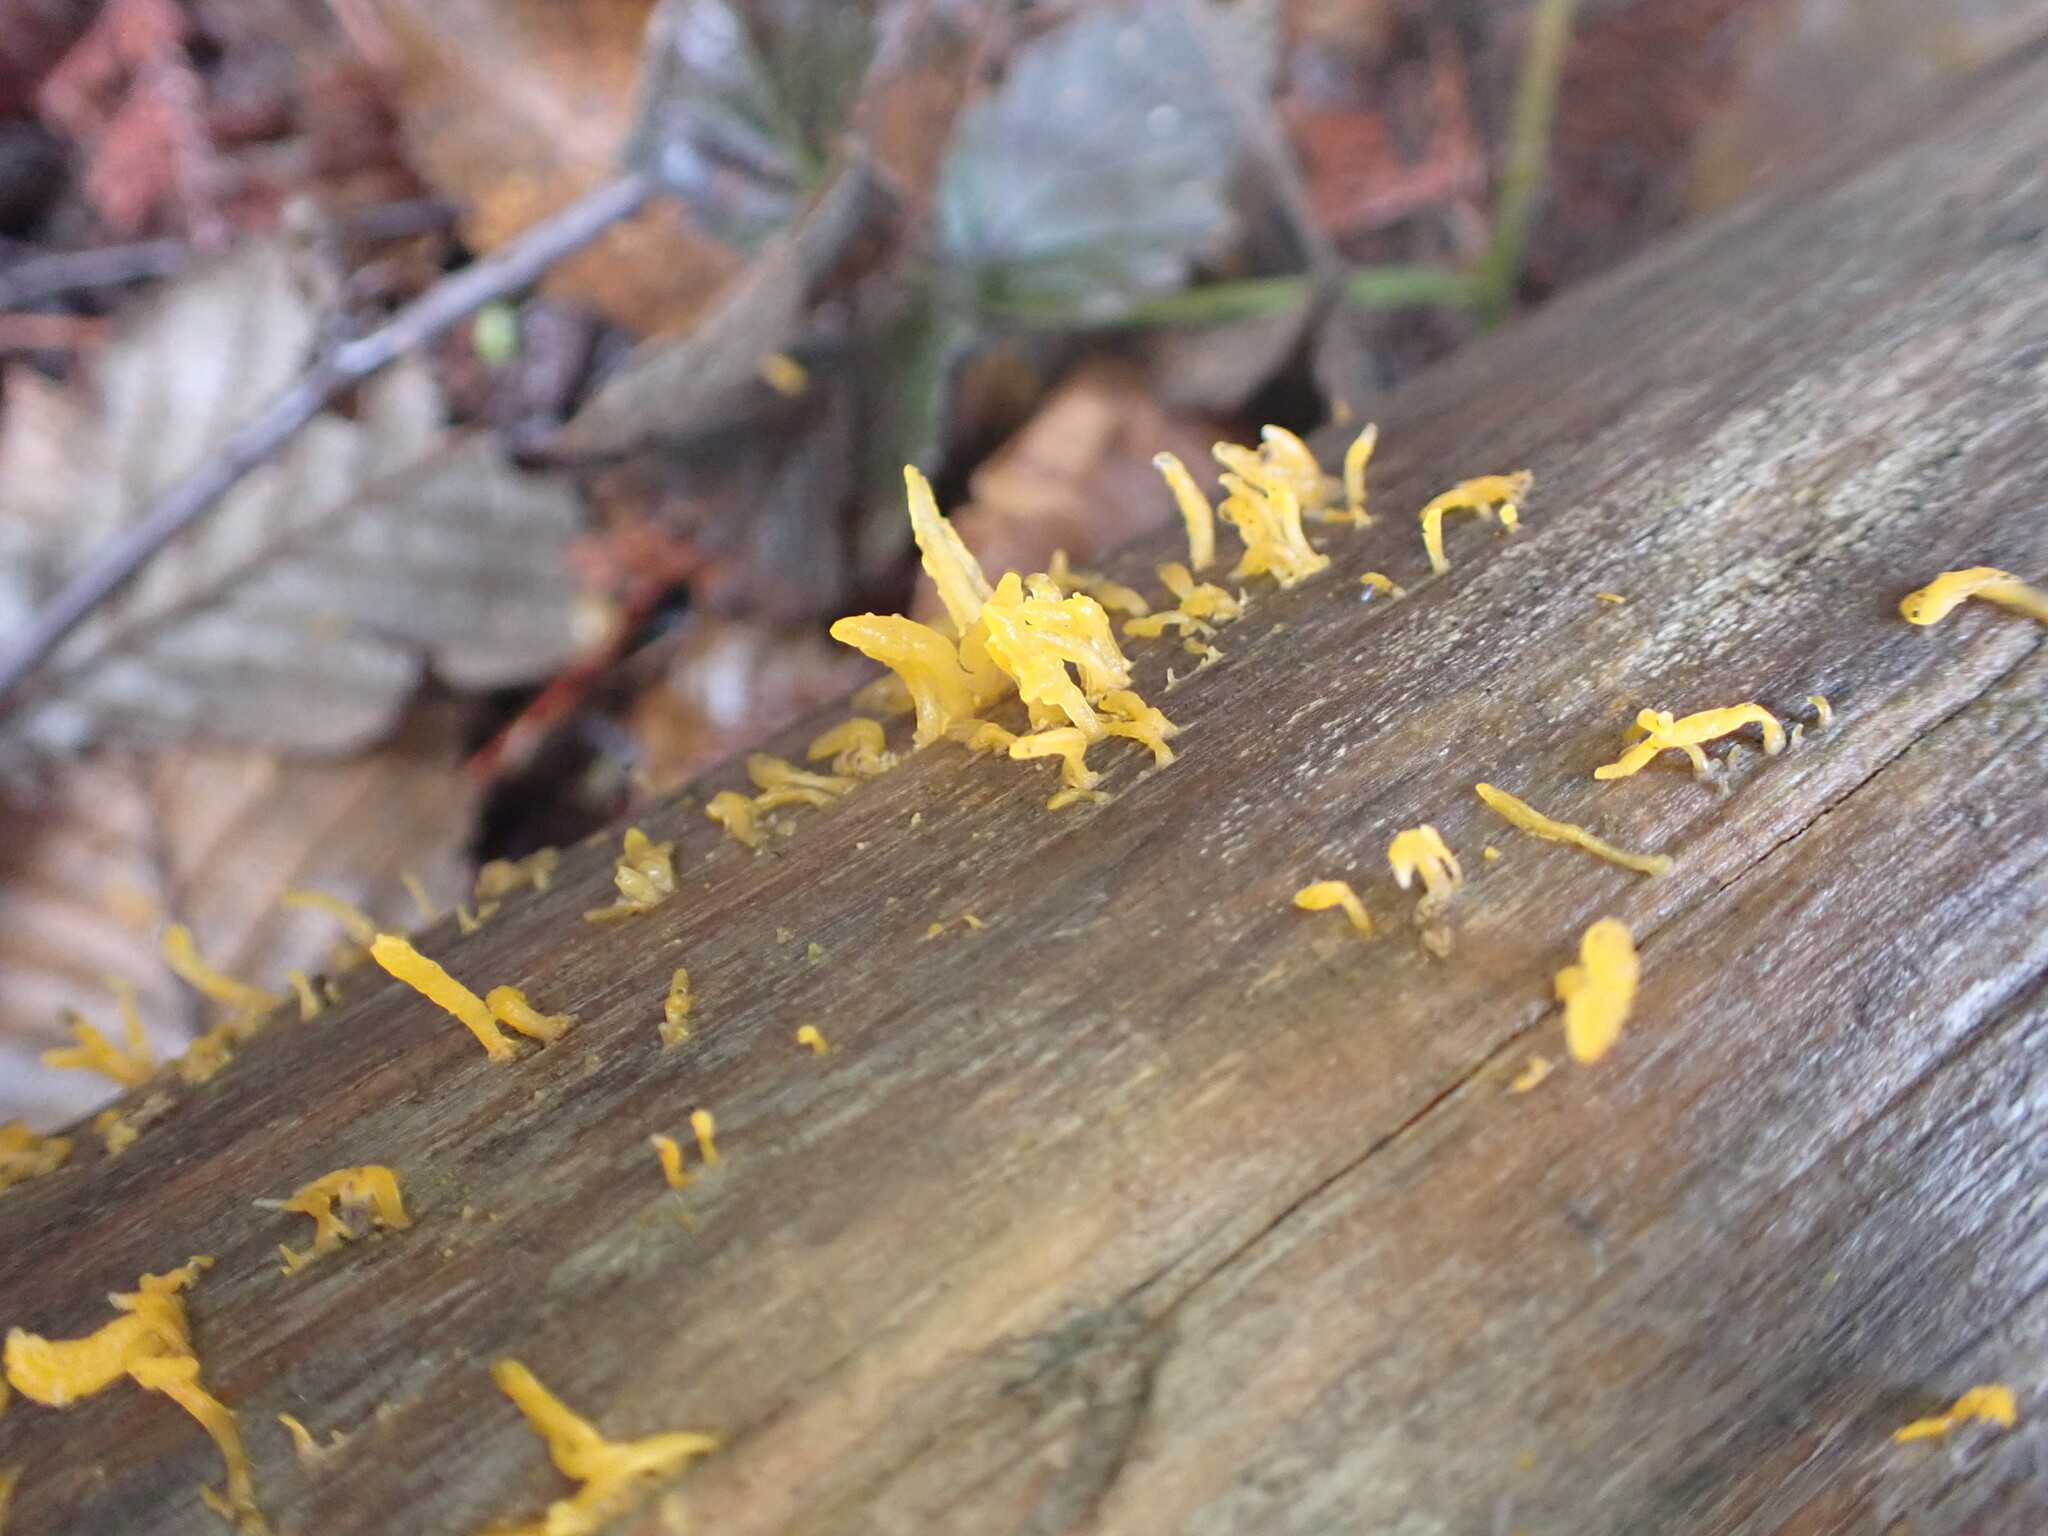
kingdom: Fungi
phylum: Basidiomycota
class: Dacrymycetes
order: Dacrymycetales
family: Dacrymycetaceae
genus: Calocera
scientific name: Calocera cornea
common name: Small stagshorn
